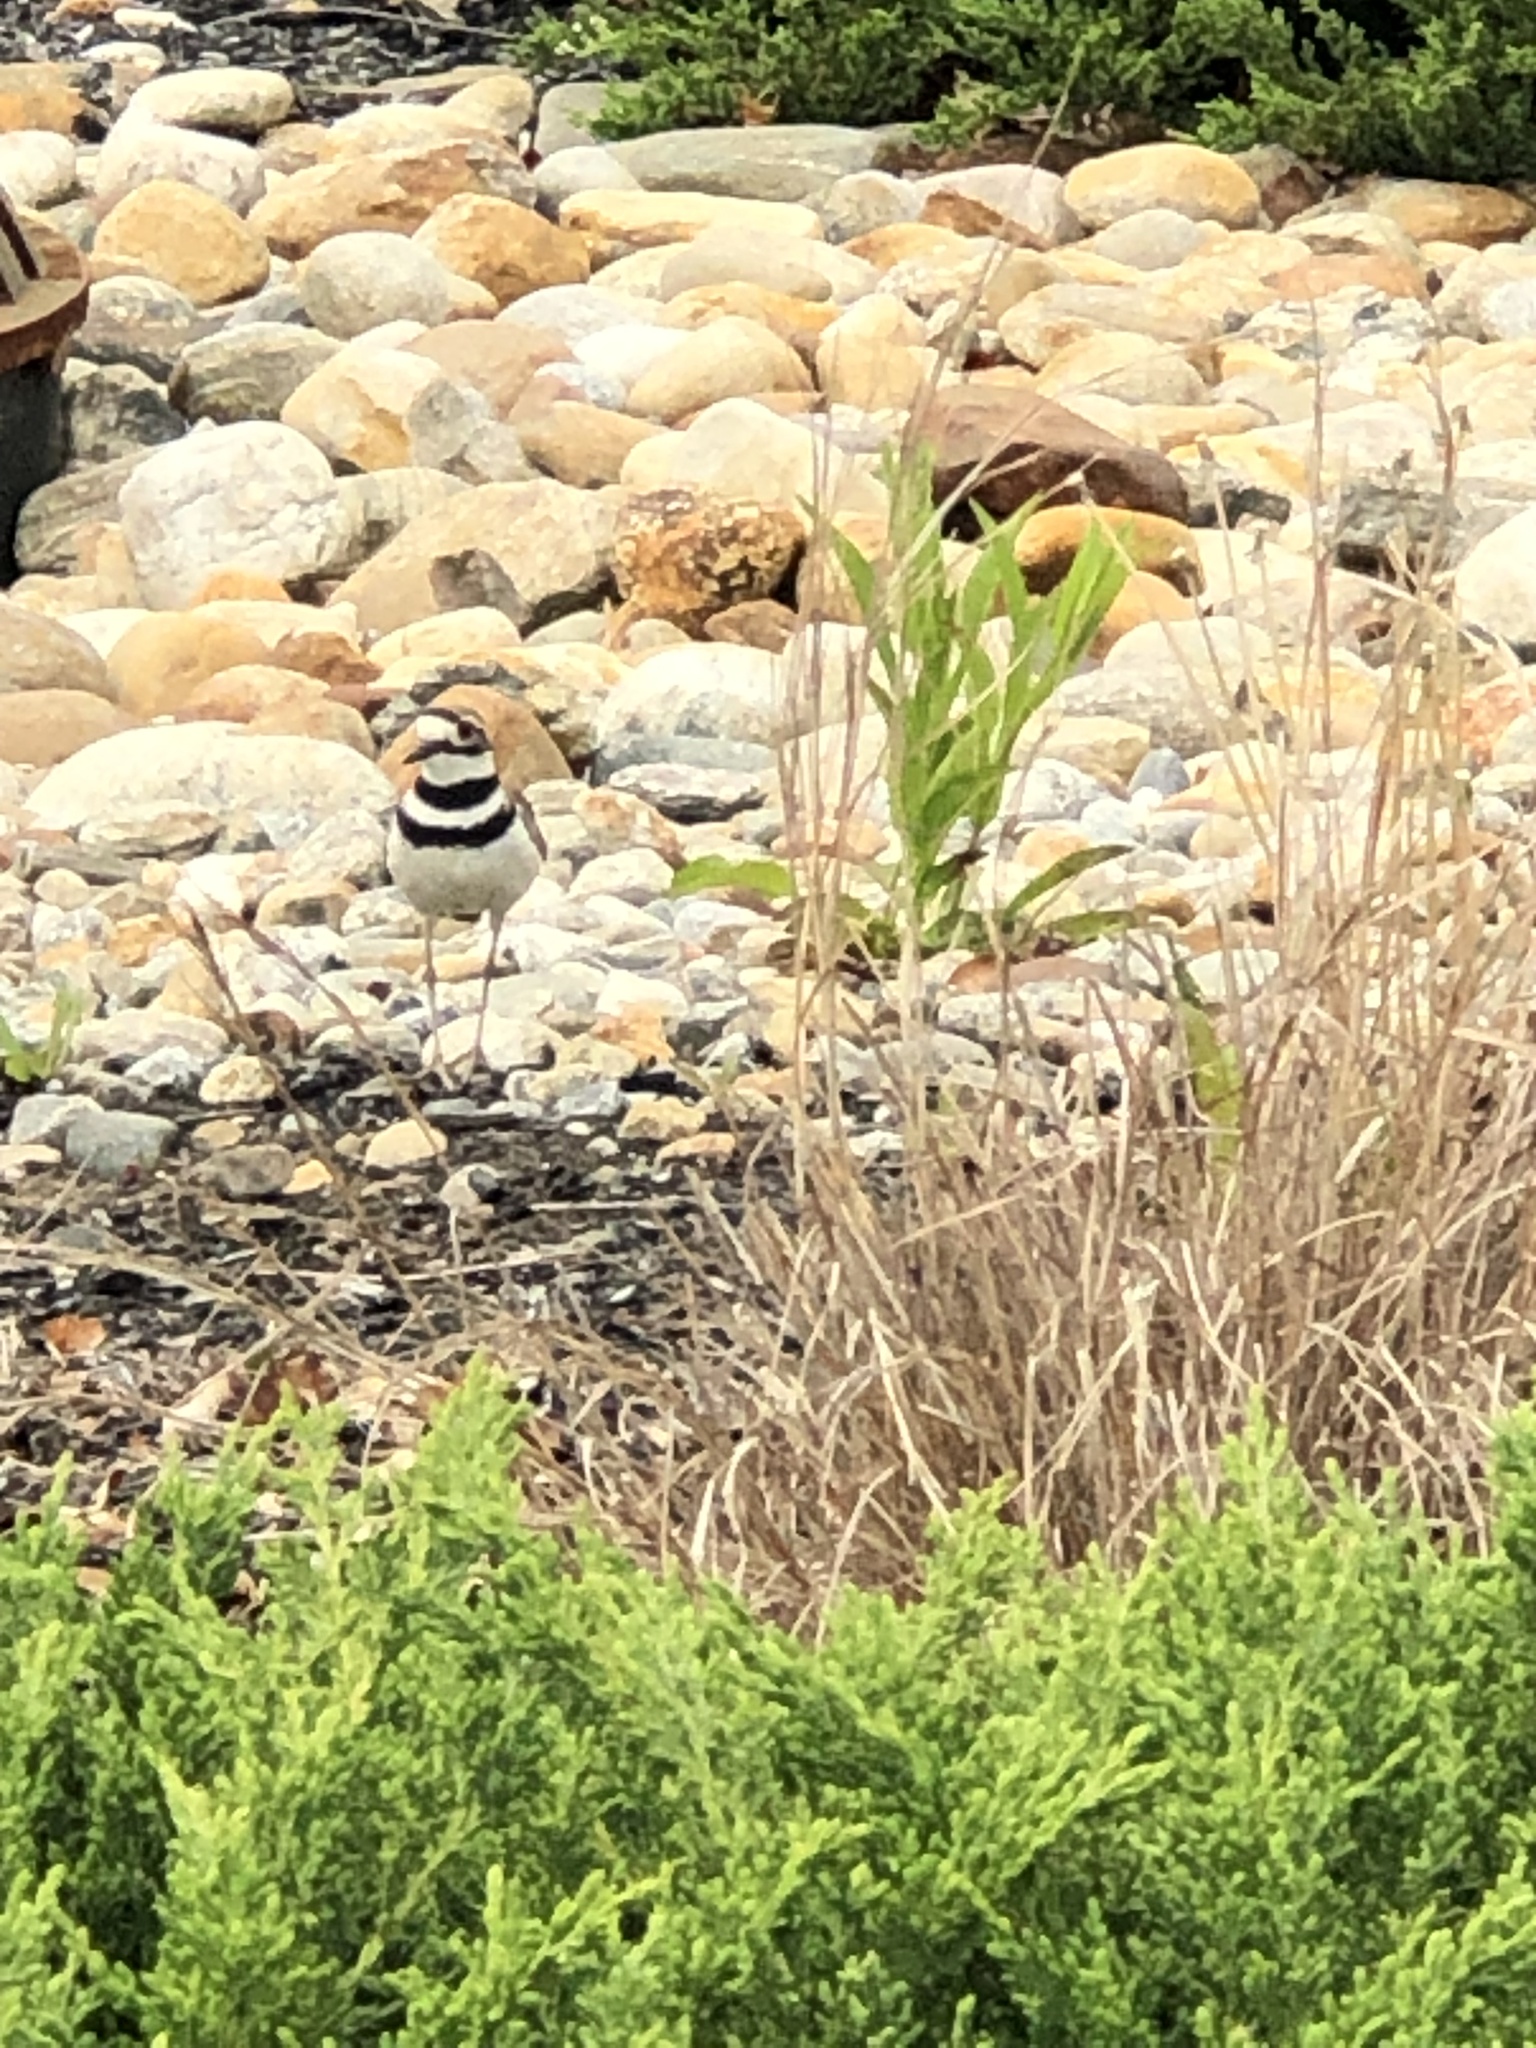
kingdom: Animalia
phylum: Chordata
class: Aves
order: Charadriiformes
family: Charadriidae
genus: Charadrius
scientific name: Charadrius vociferus
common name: Killdeer
